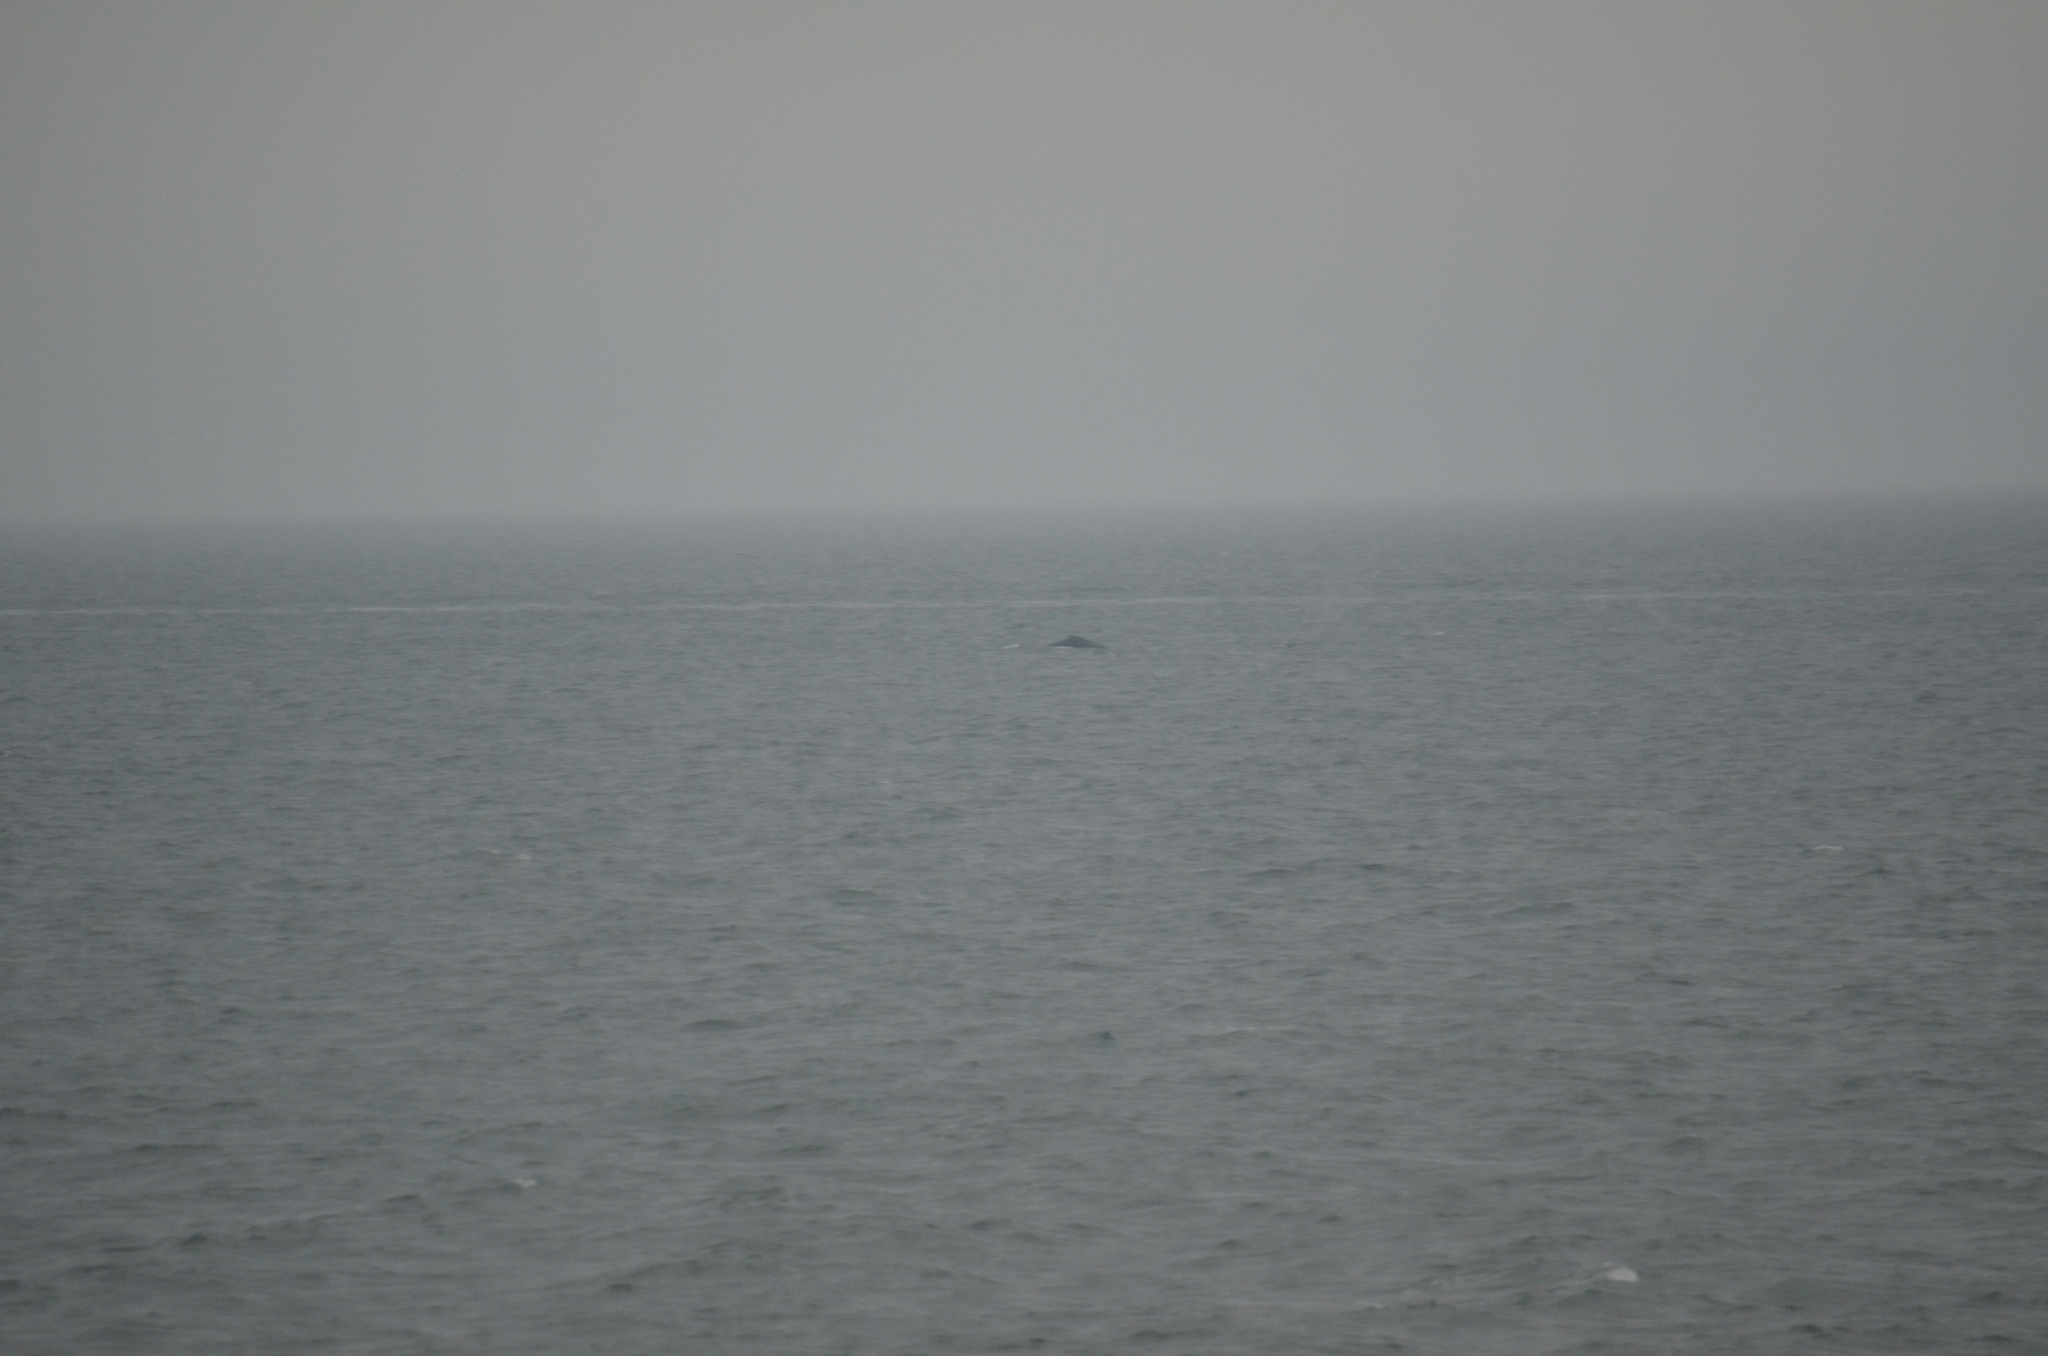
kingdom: Animalia
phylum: Chordata
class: Mammalia
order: Cetacea
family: Balaenopteridae
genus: Megaptera
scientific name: Megaptera novaeangliae
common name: Humpback whale
